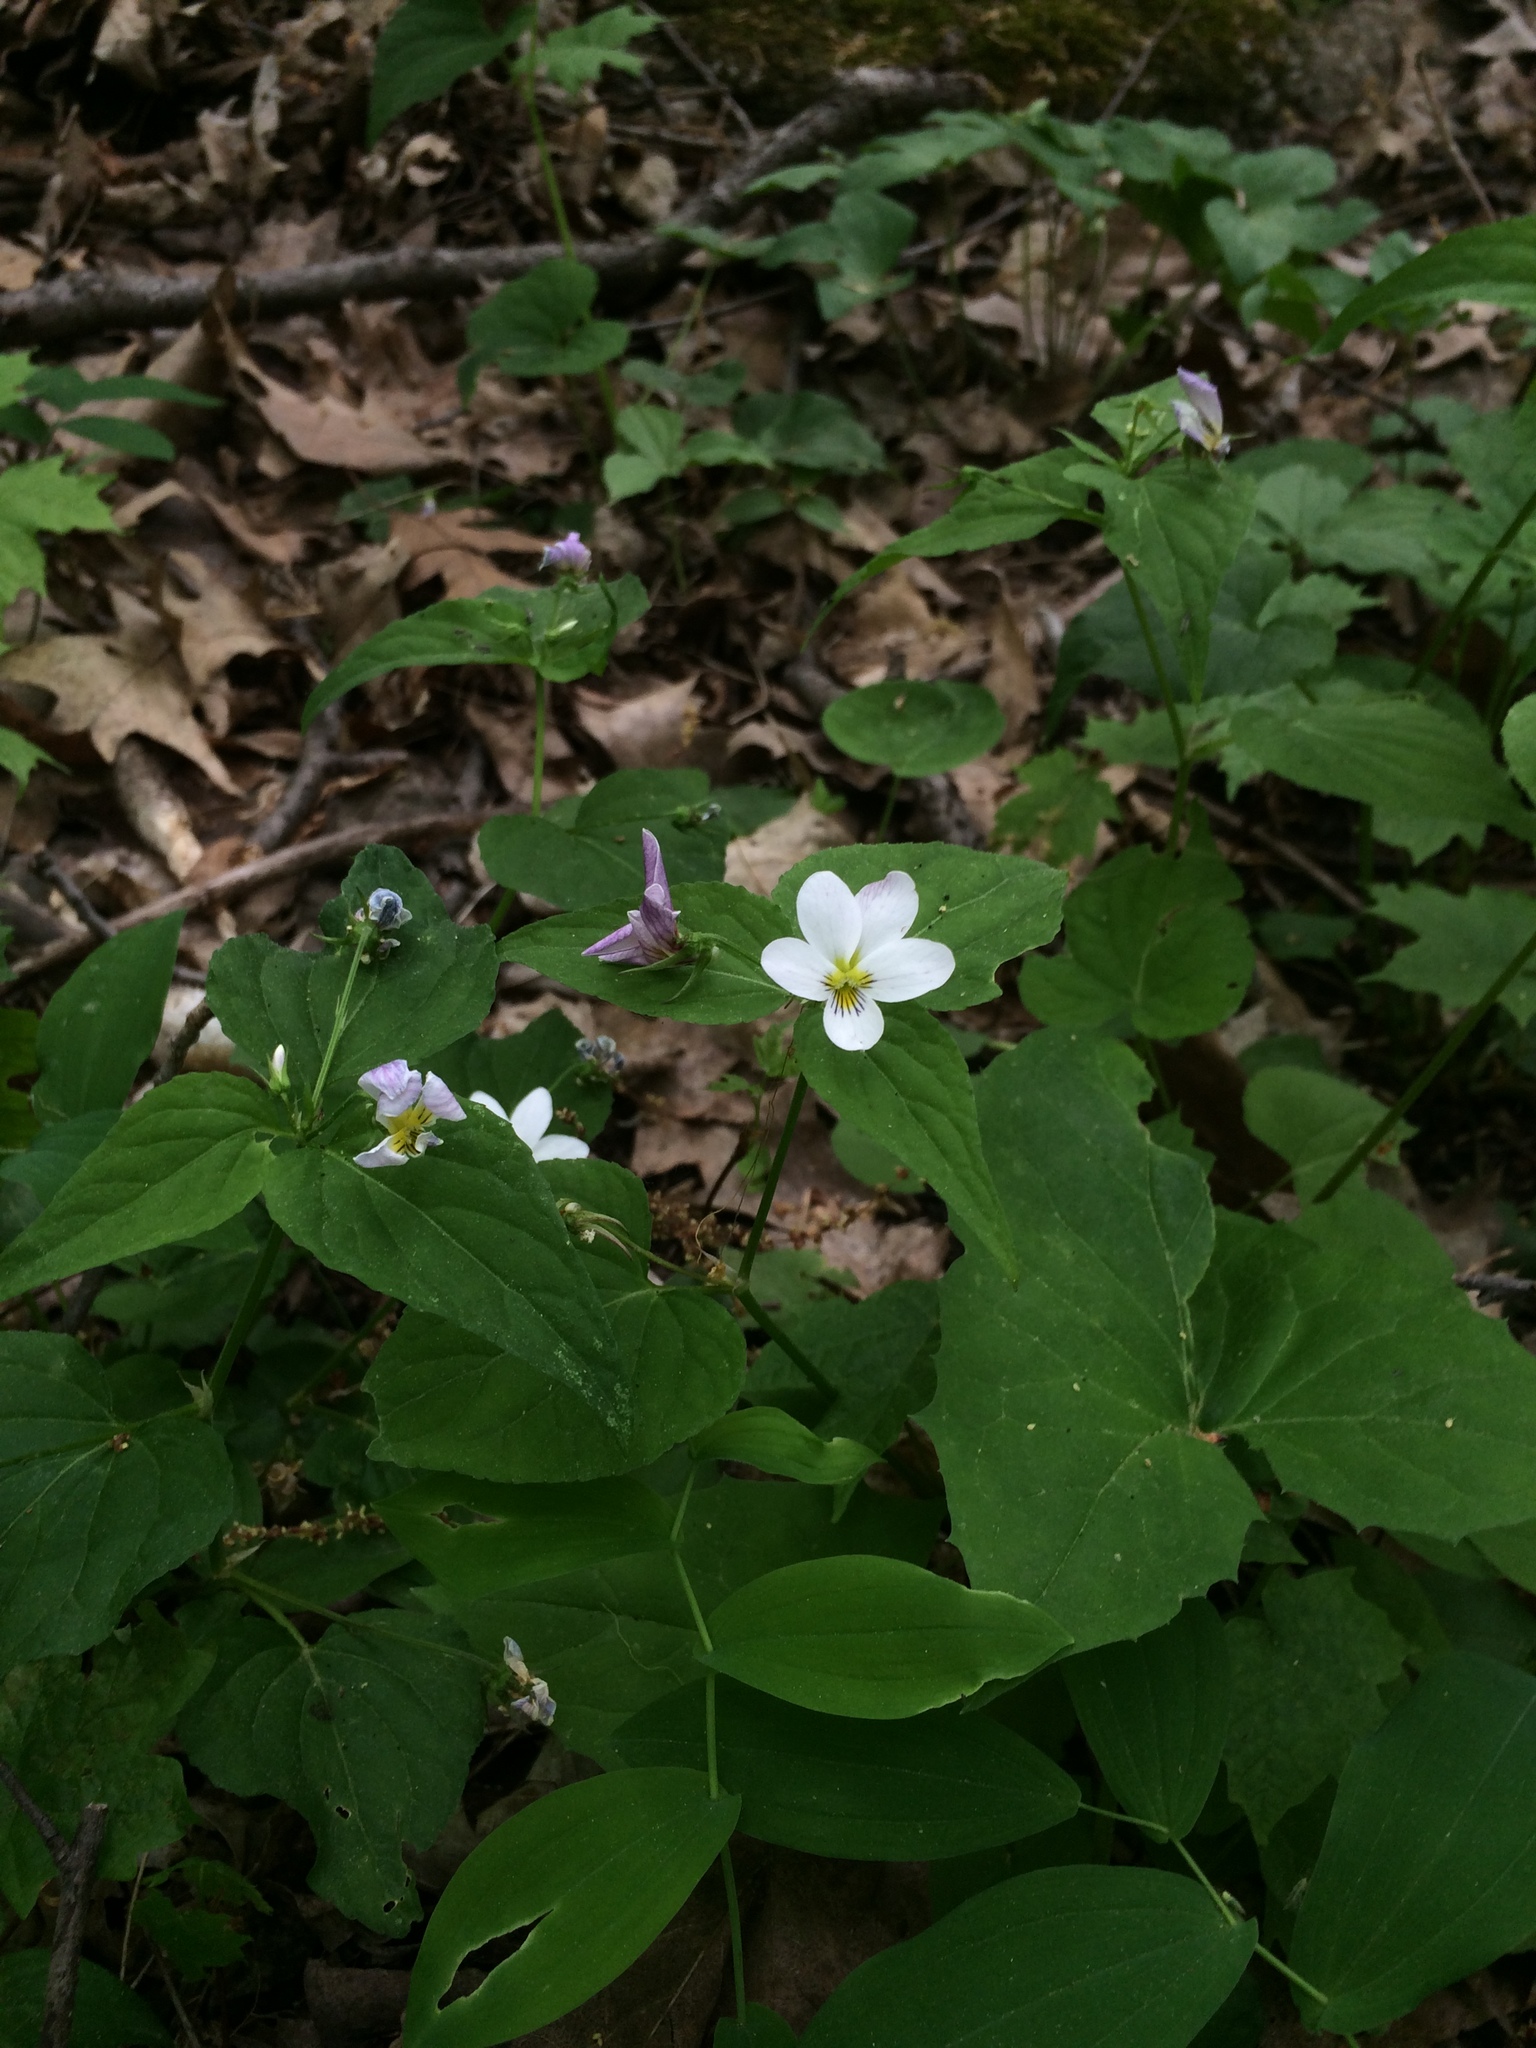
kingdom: Plantae
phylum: Tracheophyta
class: Magnoliopsida
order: Malpighiales
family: Violaceae
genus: Viola
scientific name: Viola canadensis
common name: Canada violet
